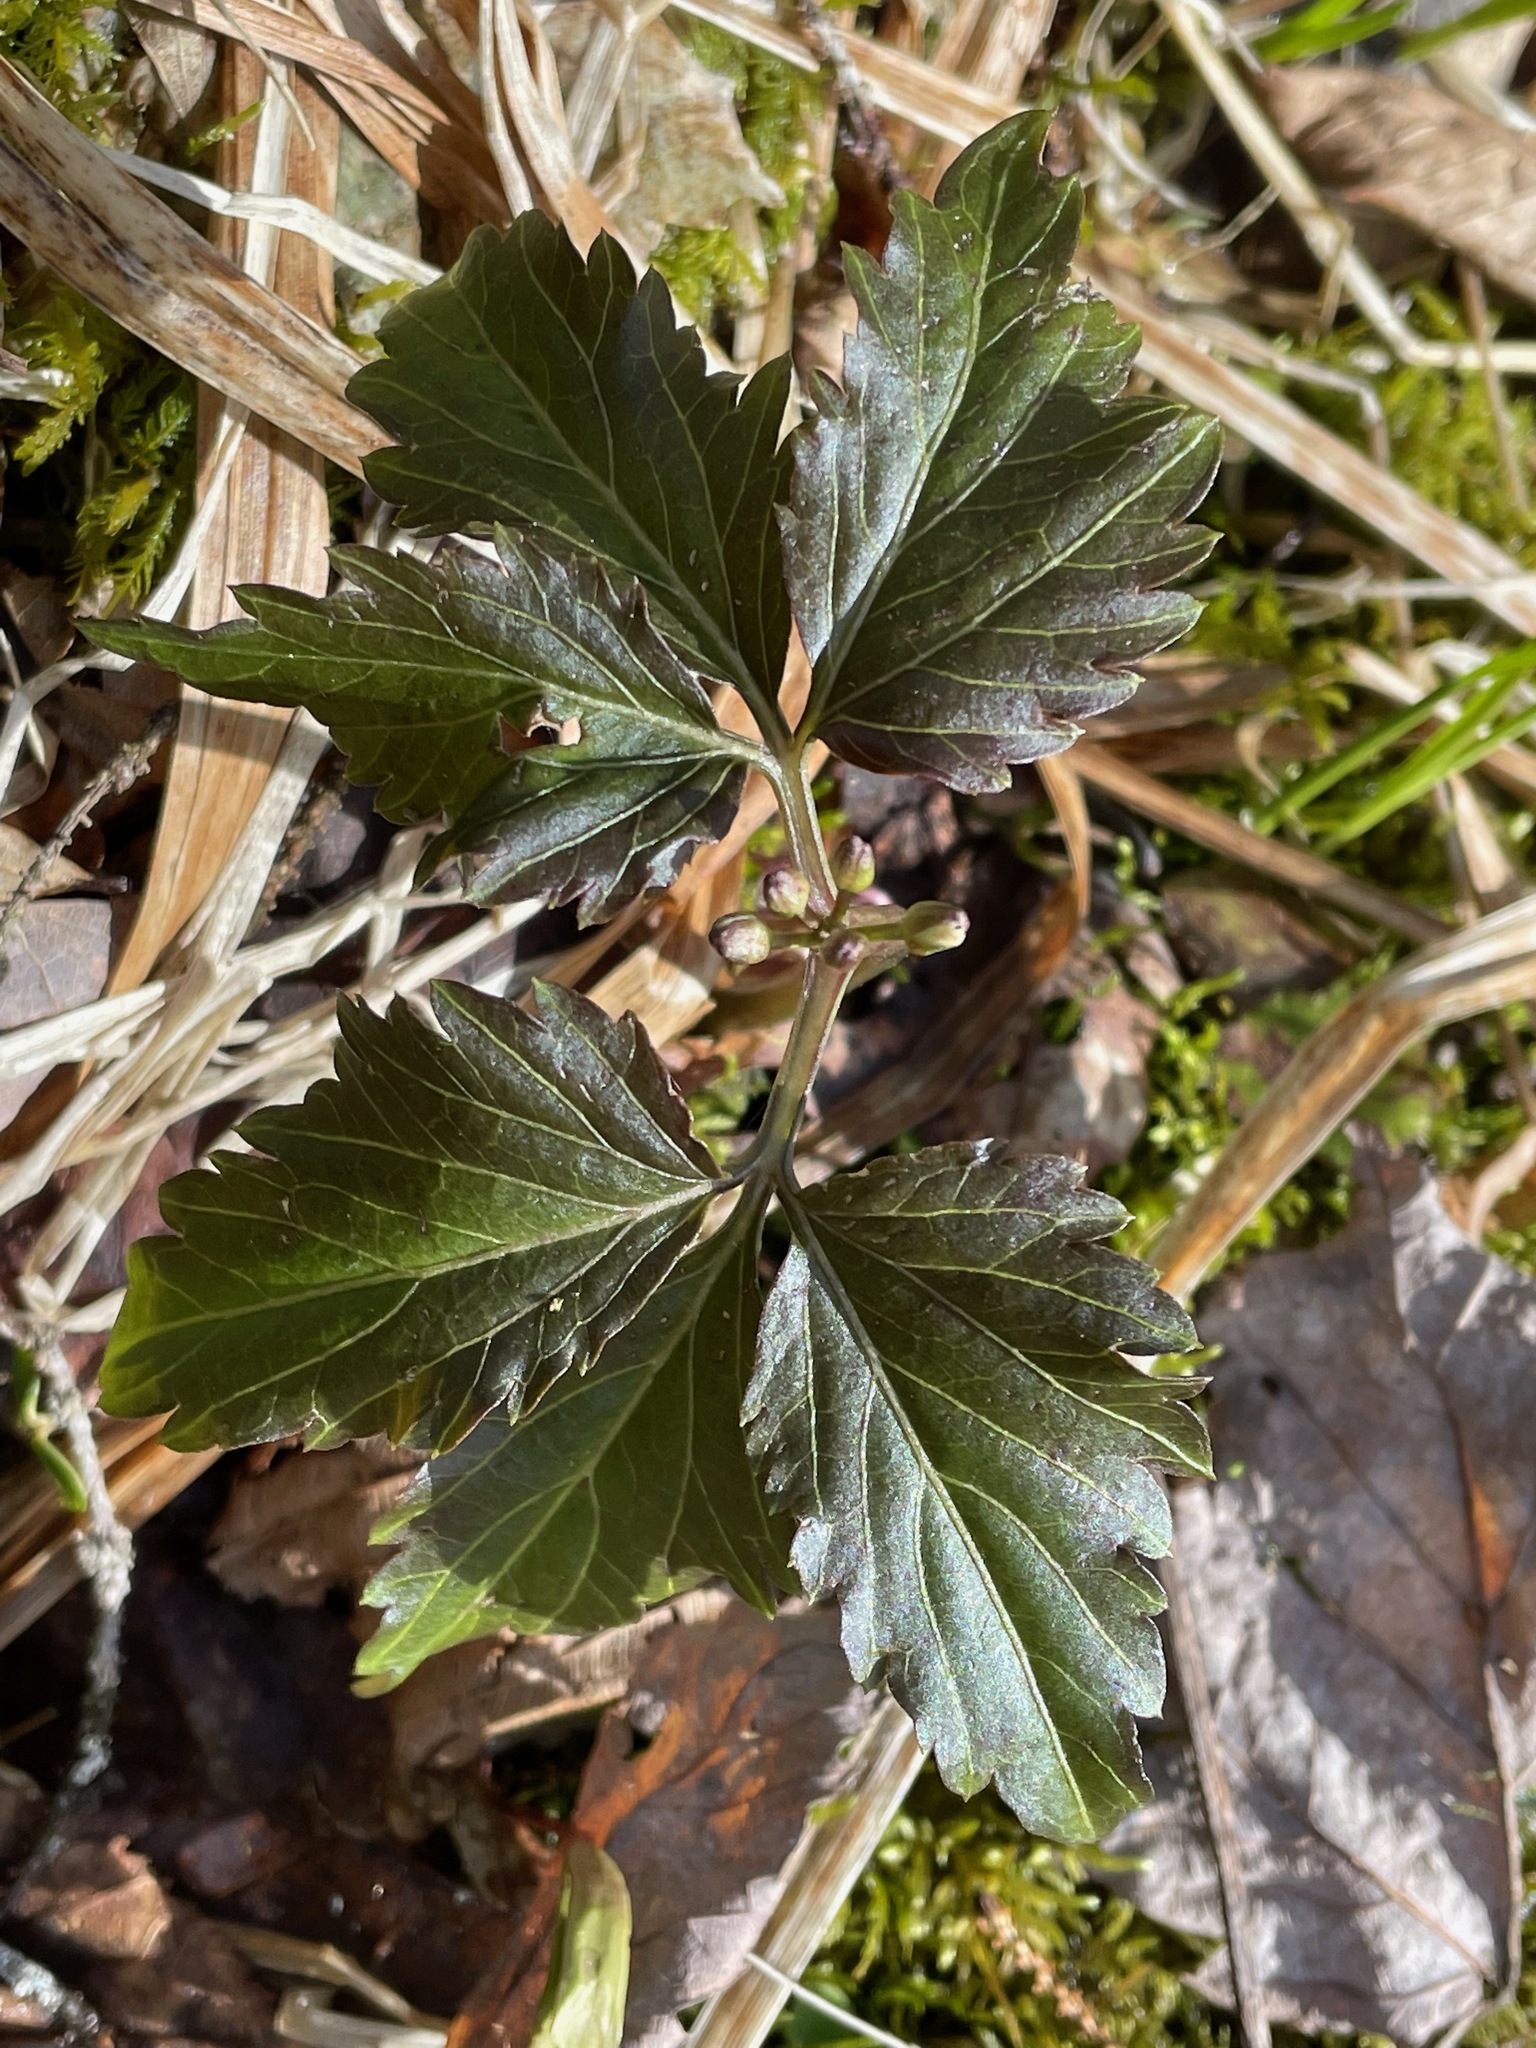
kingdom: Plantae
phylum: Tracheophyta
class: Magnoliopsida
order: Brassicales
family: Brassicaceae
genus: Cardamine
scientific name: Cardamine diphylla
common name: Broad-leaved toothwort
